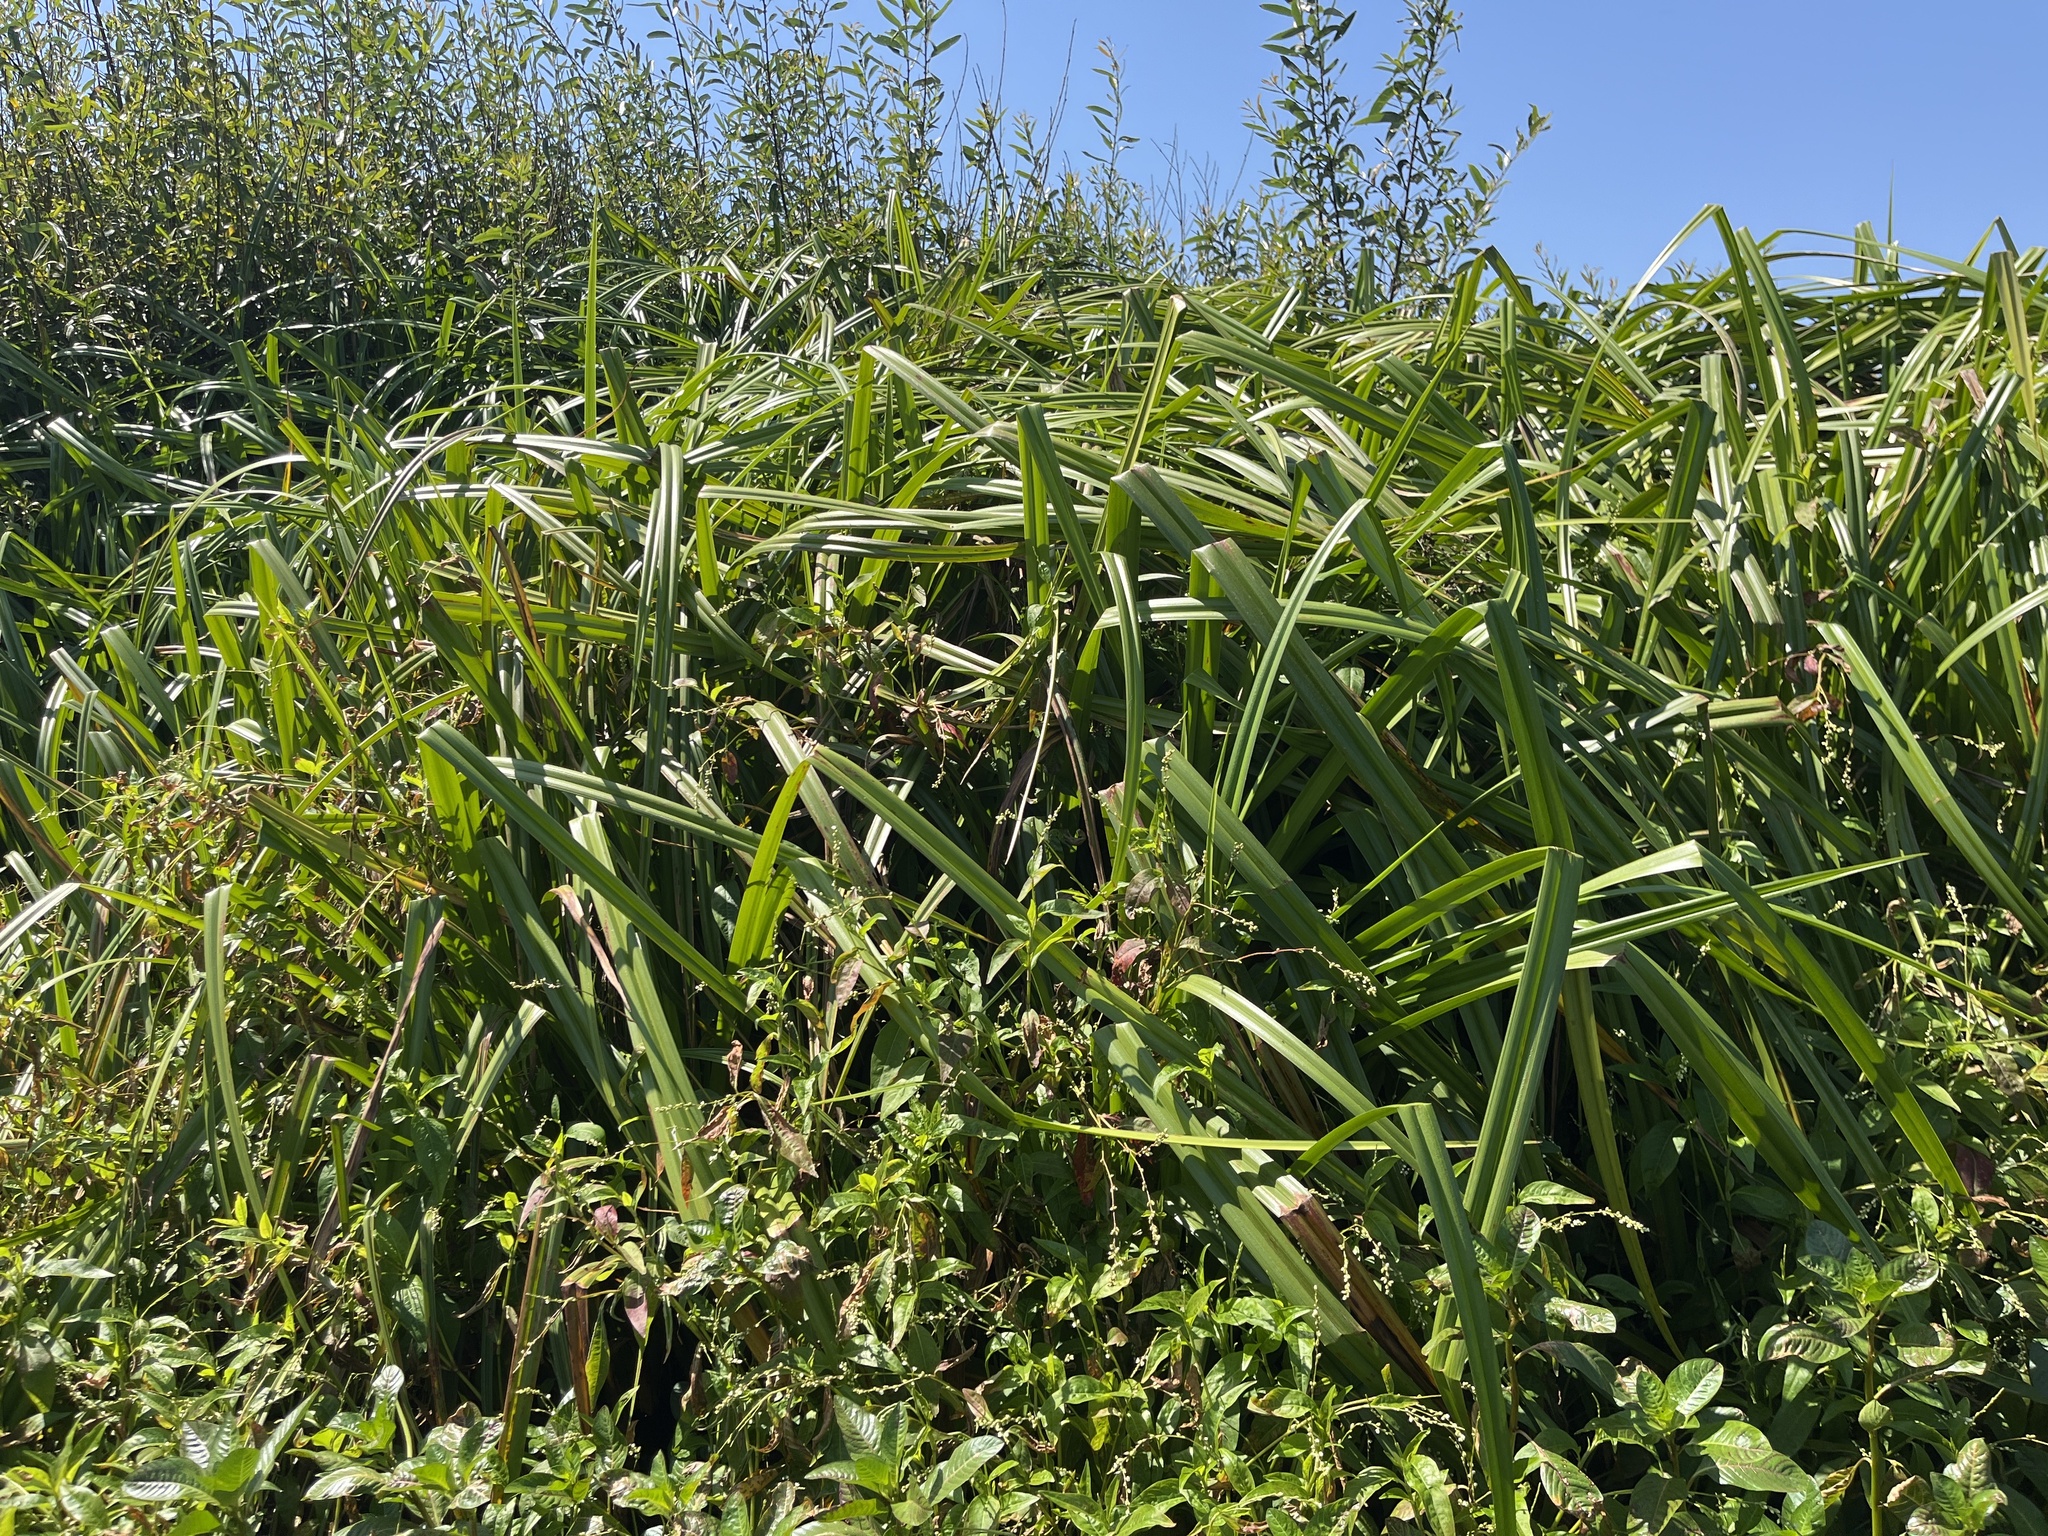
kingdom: Plantae
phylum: Tracheophyta
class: Liliopsida
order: Asparagales
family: Iridaceae
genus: Iris
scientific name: Iris pseudacorus
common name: Yellow flag
